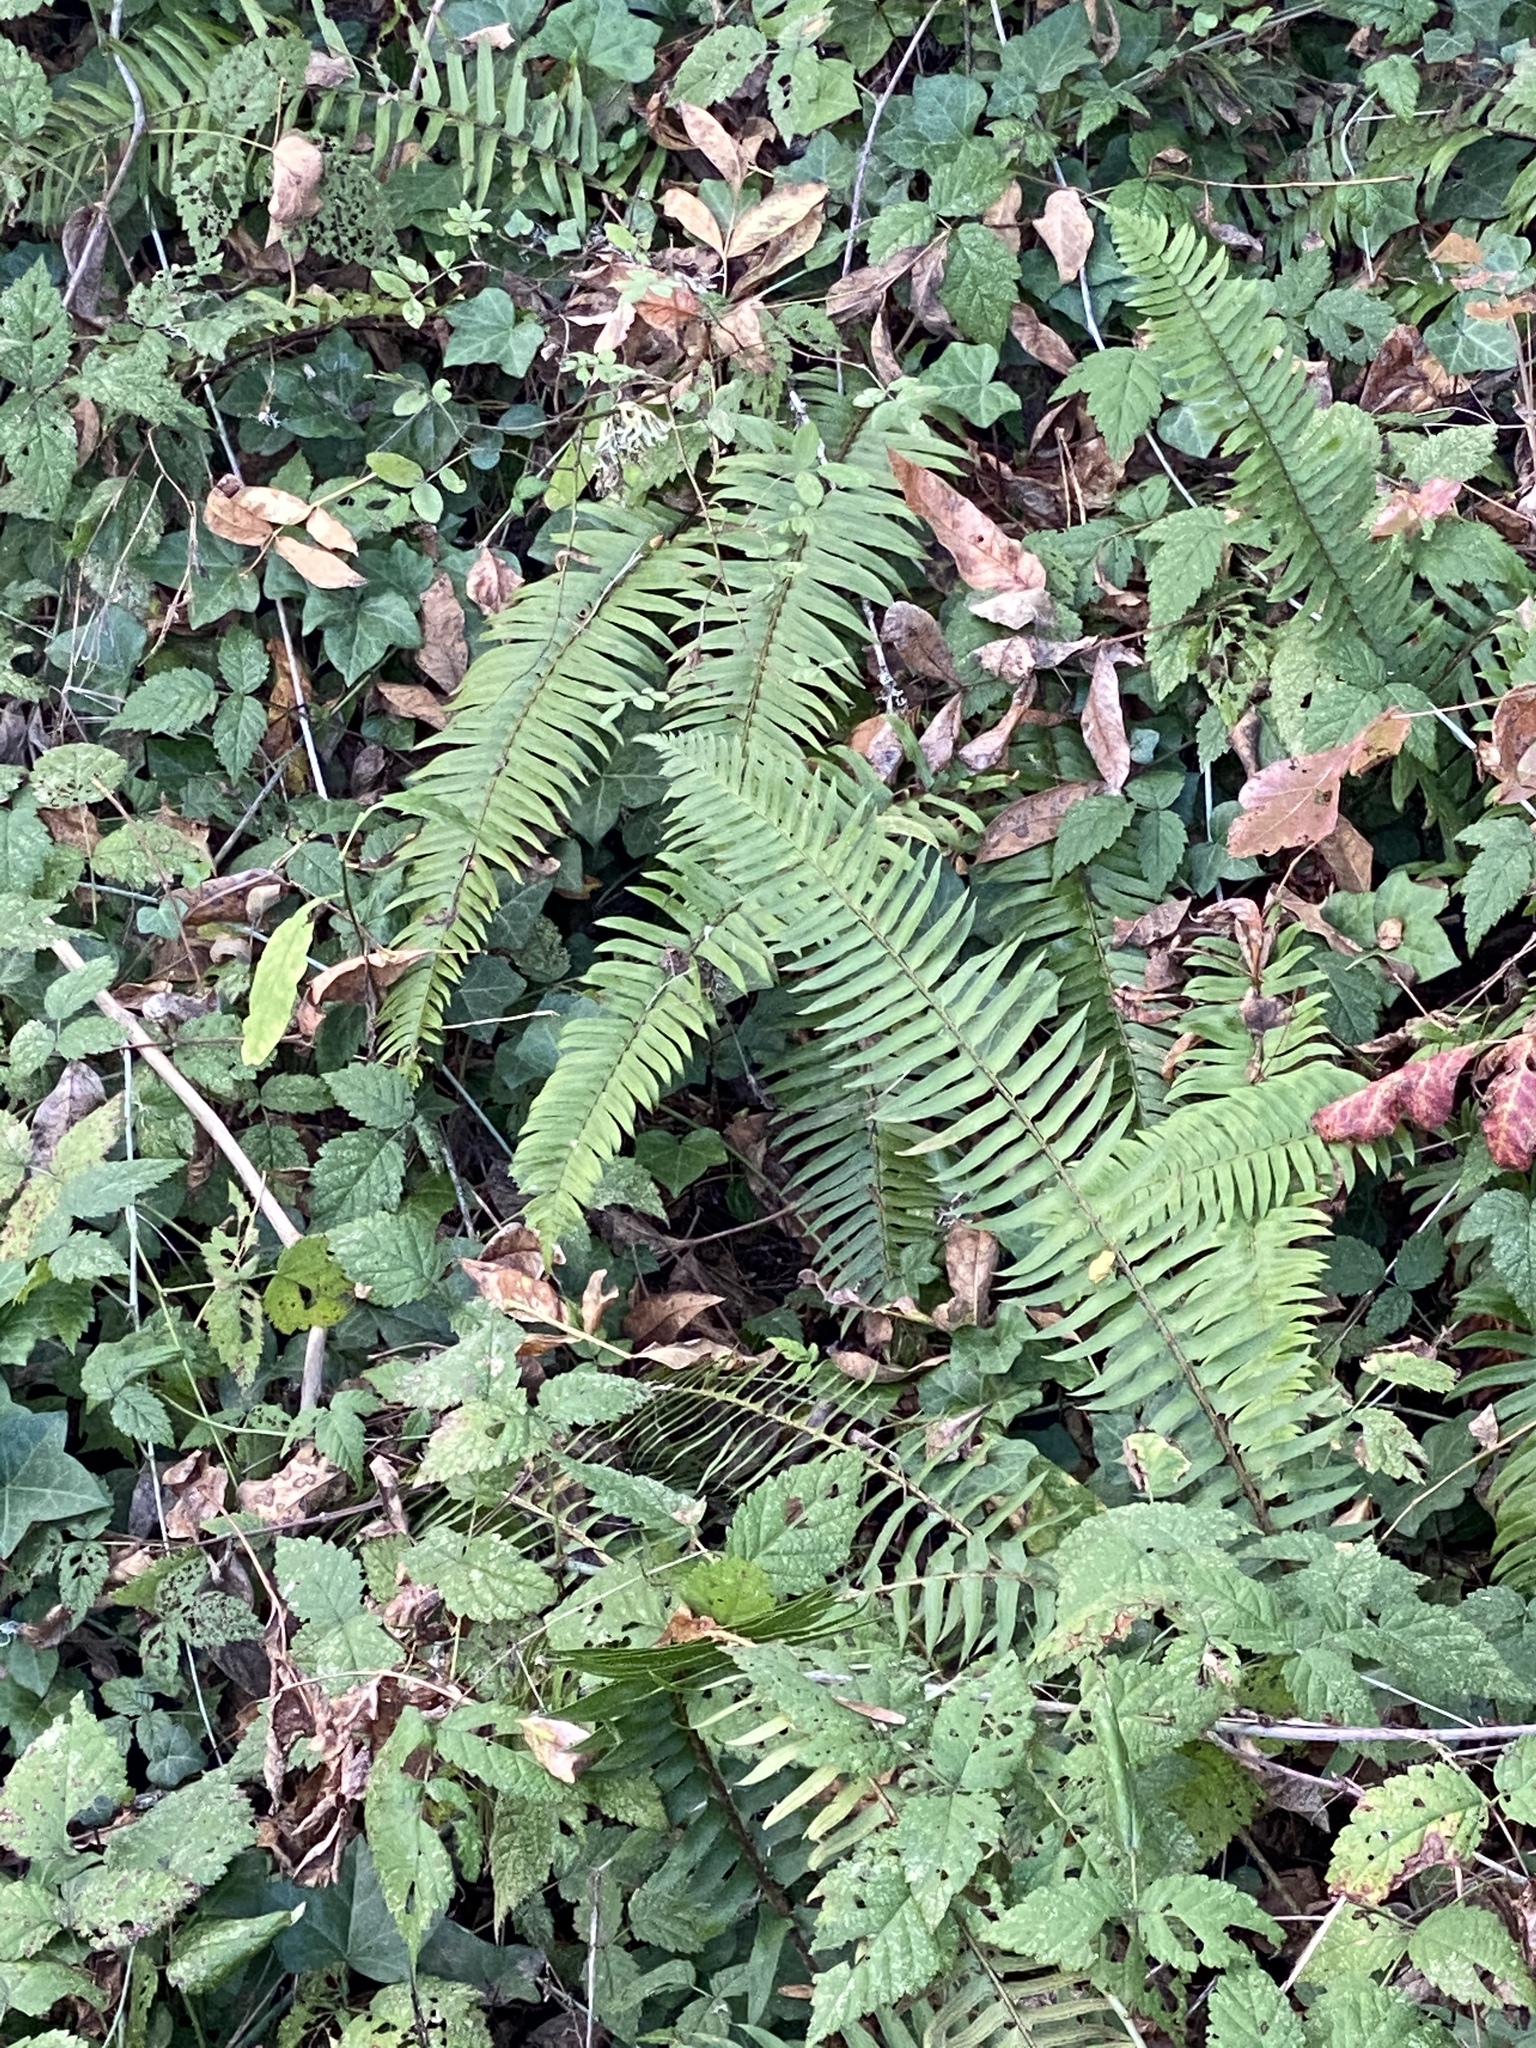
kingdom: Plantae
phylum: Tracheophyta
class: Polypodiopsida
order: Polypodiales
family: Dryopteridaceae
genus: Polystichum
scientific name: Polystichum munitum
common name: Western sword-fern
